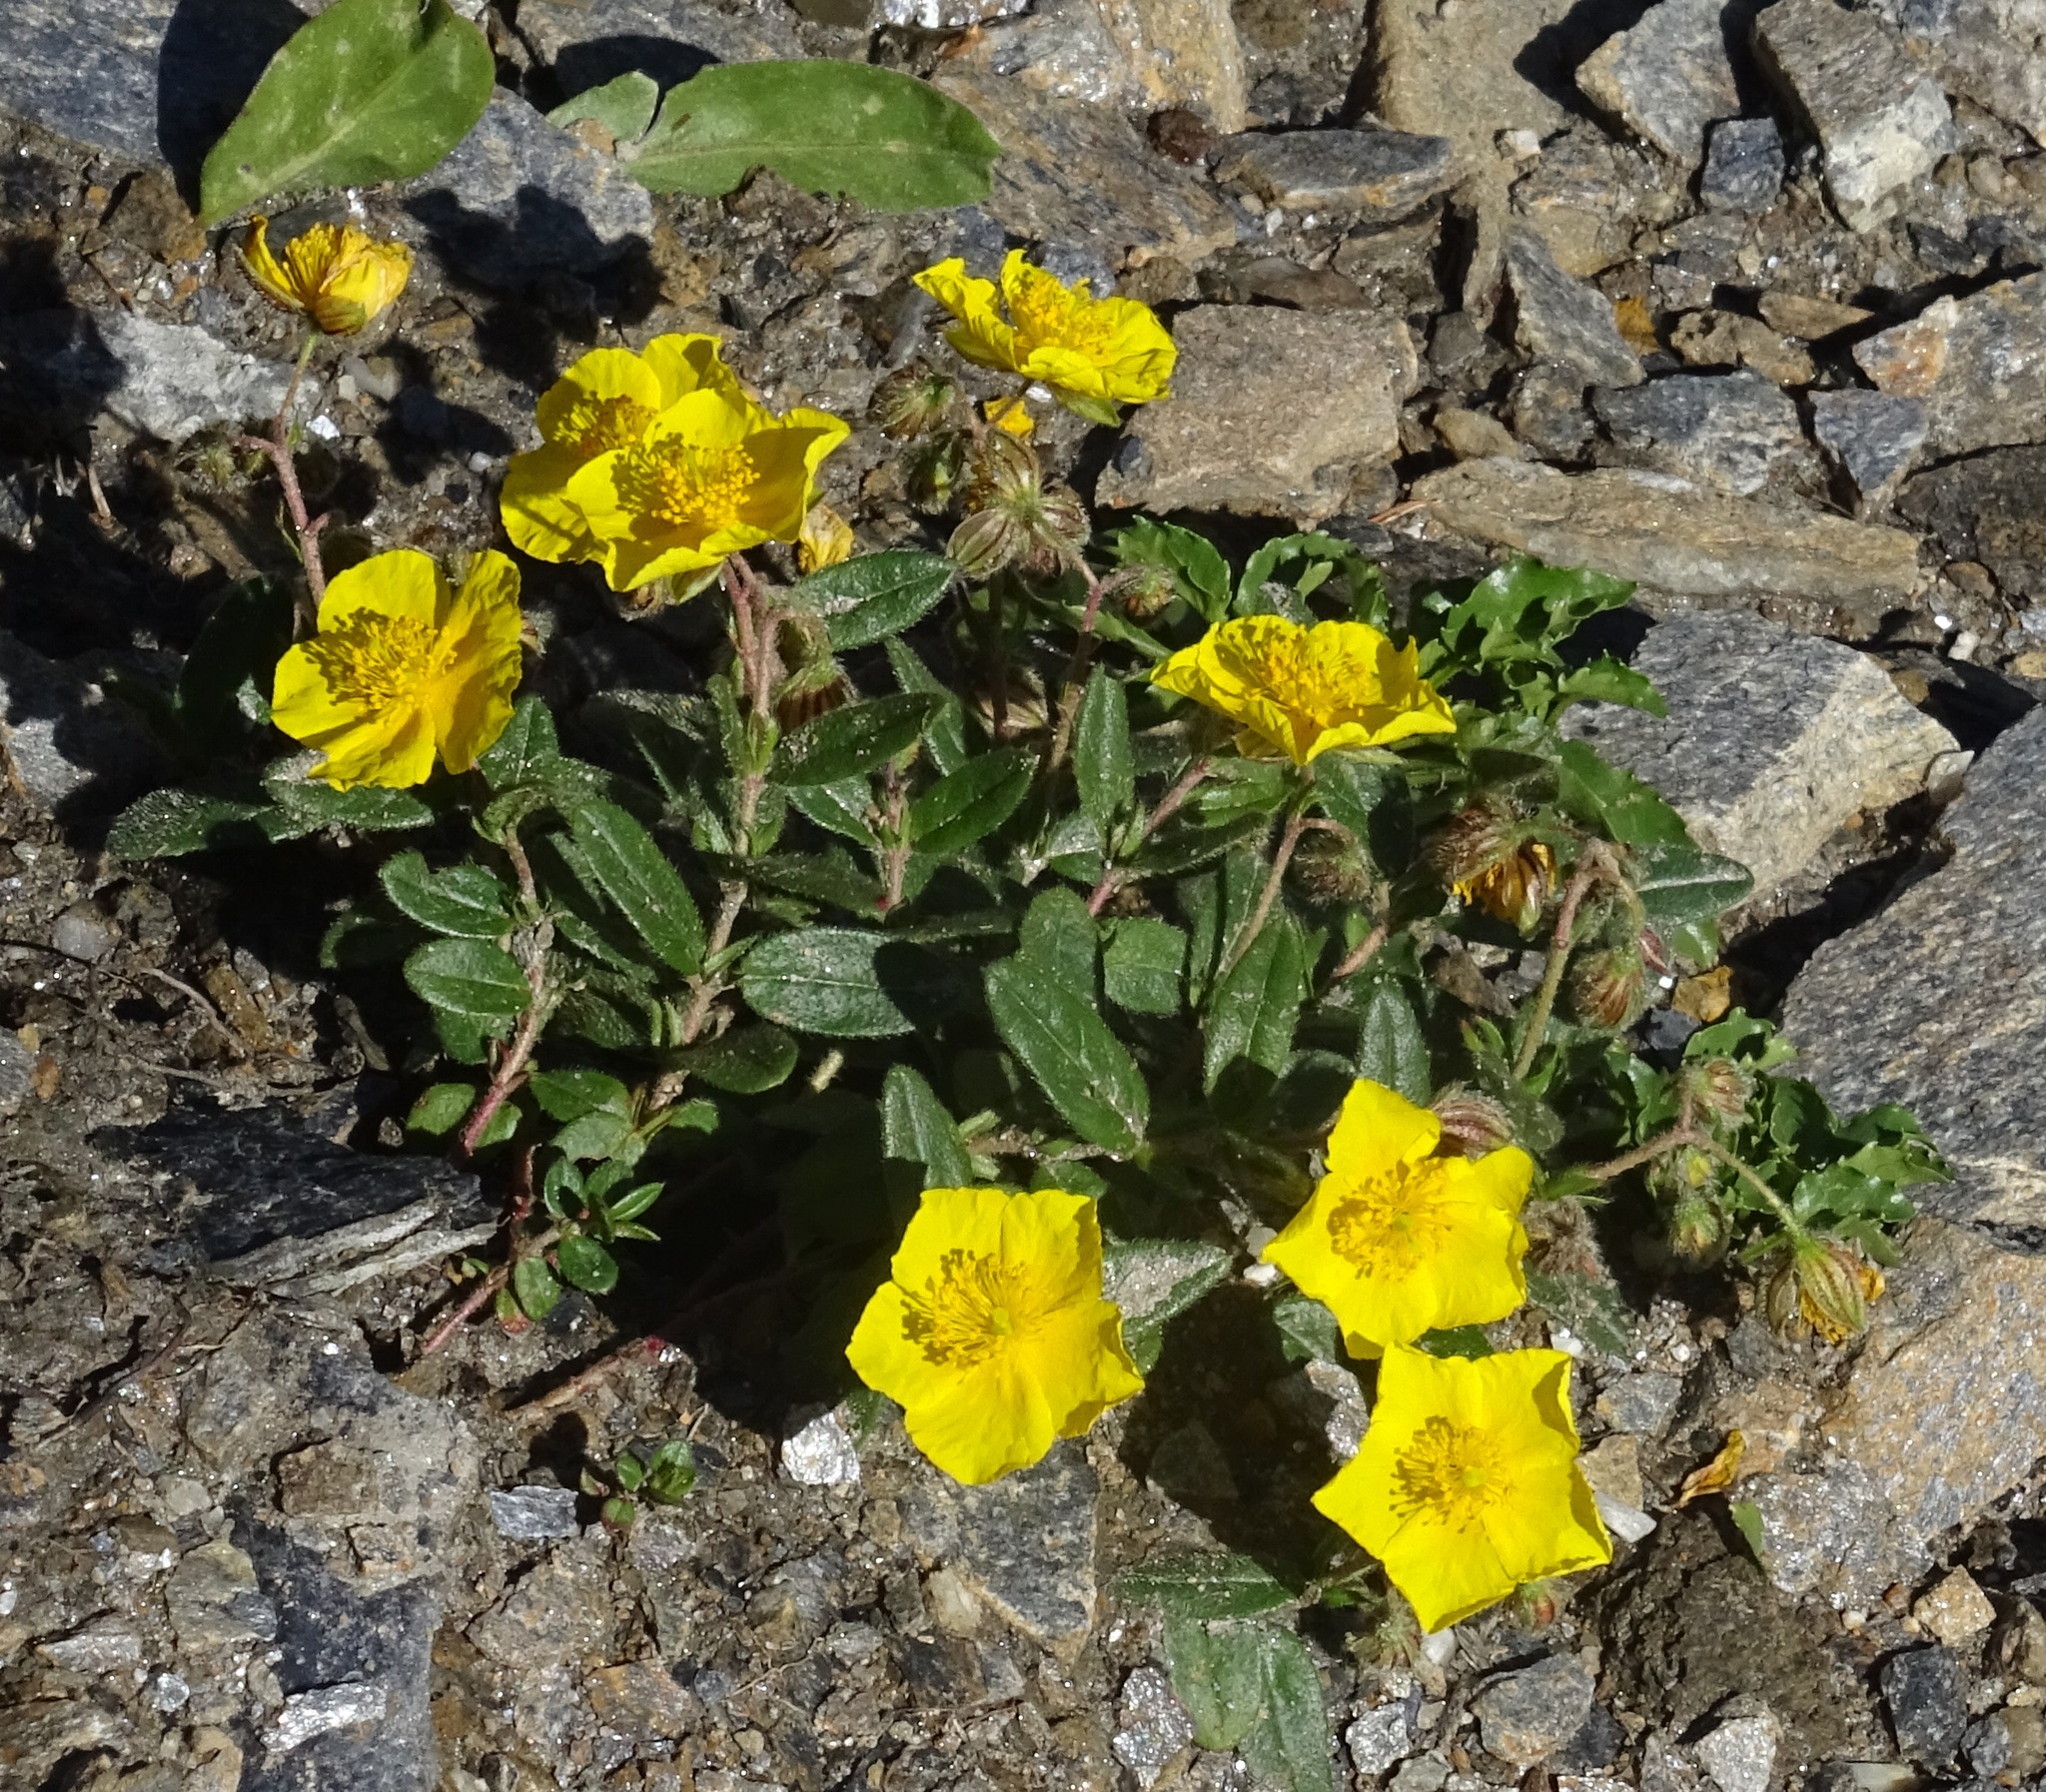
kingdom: Plantae
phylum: Tracheophyta
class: Magnoliopsida
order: Malvales
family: Cistaceae
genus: Helianthemum
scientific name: Helianthemum nummularium
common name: Common rock-rose
